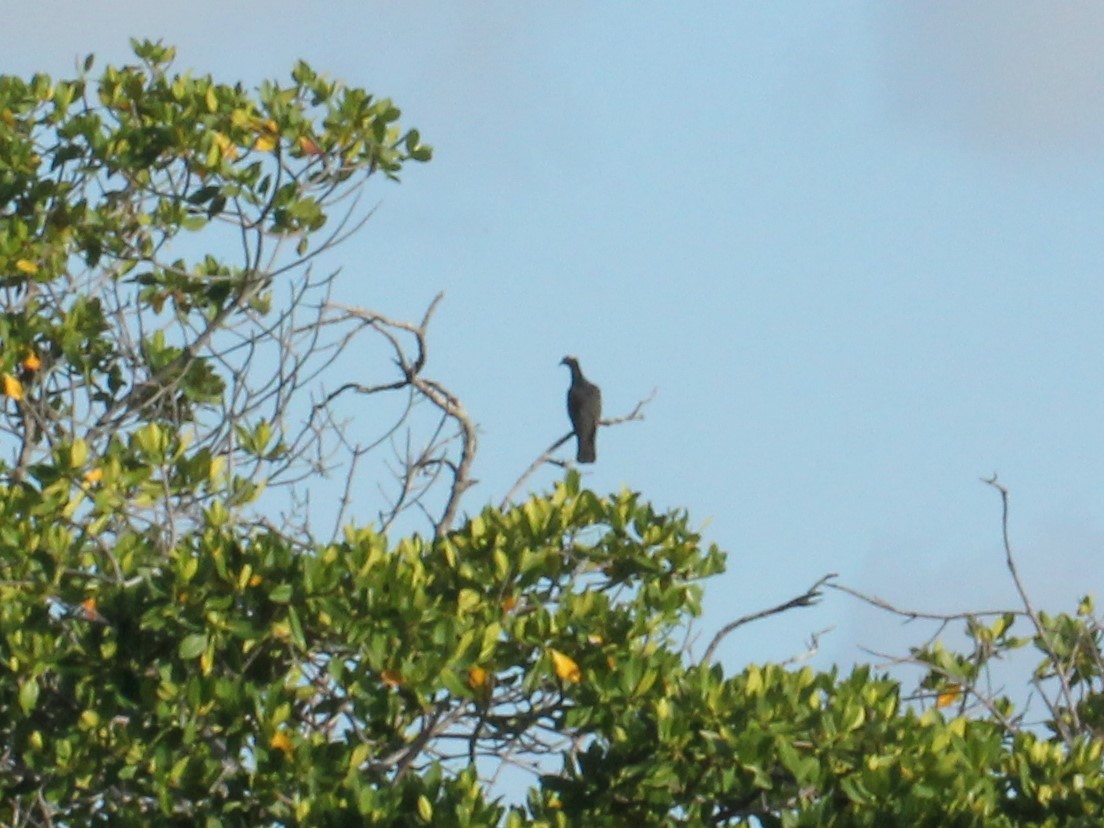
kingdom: Animalia
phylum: Chordata
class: Aves
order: Columbiformes
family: Columbidae
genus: Patagioenas
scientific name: Patagioenas leucocephala
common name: White-crowned pigeon
